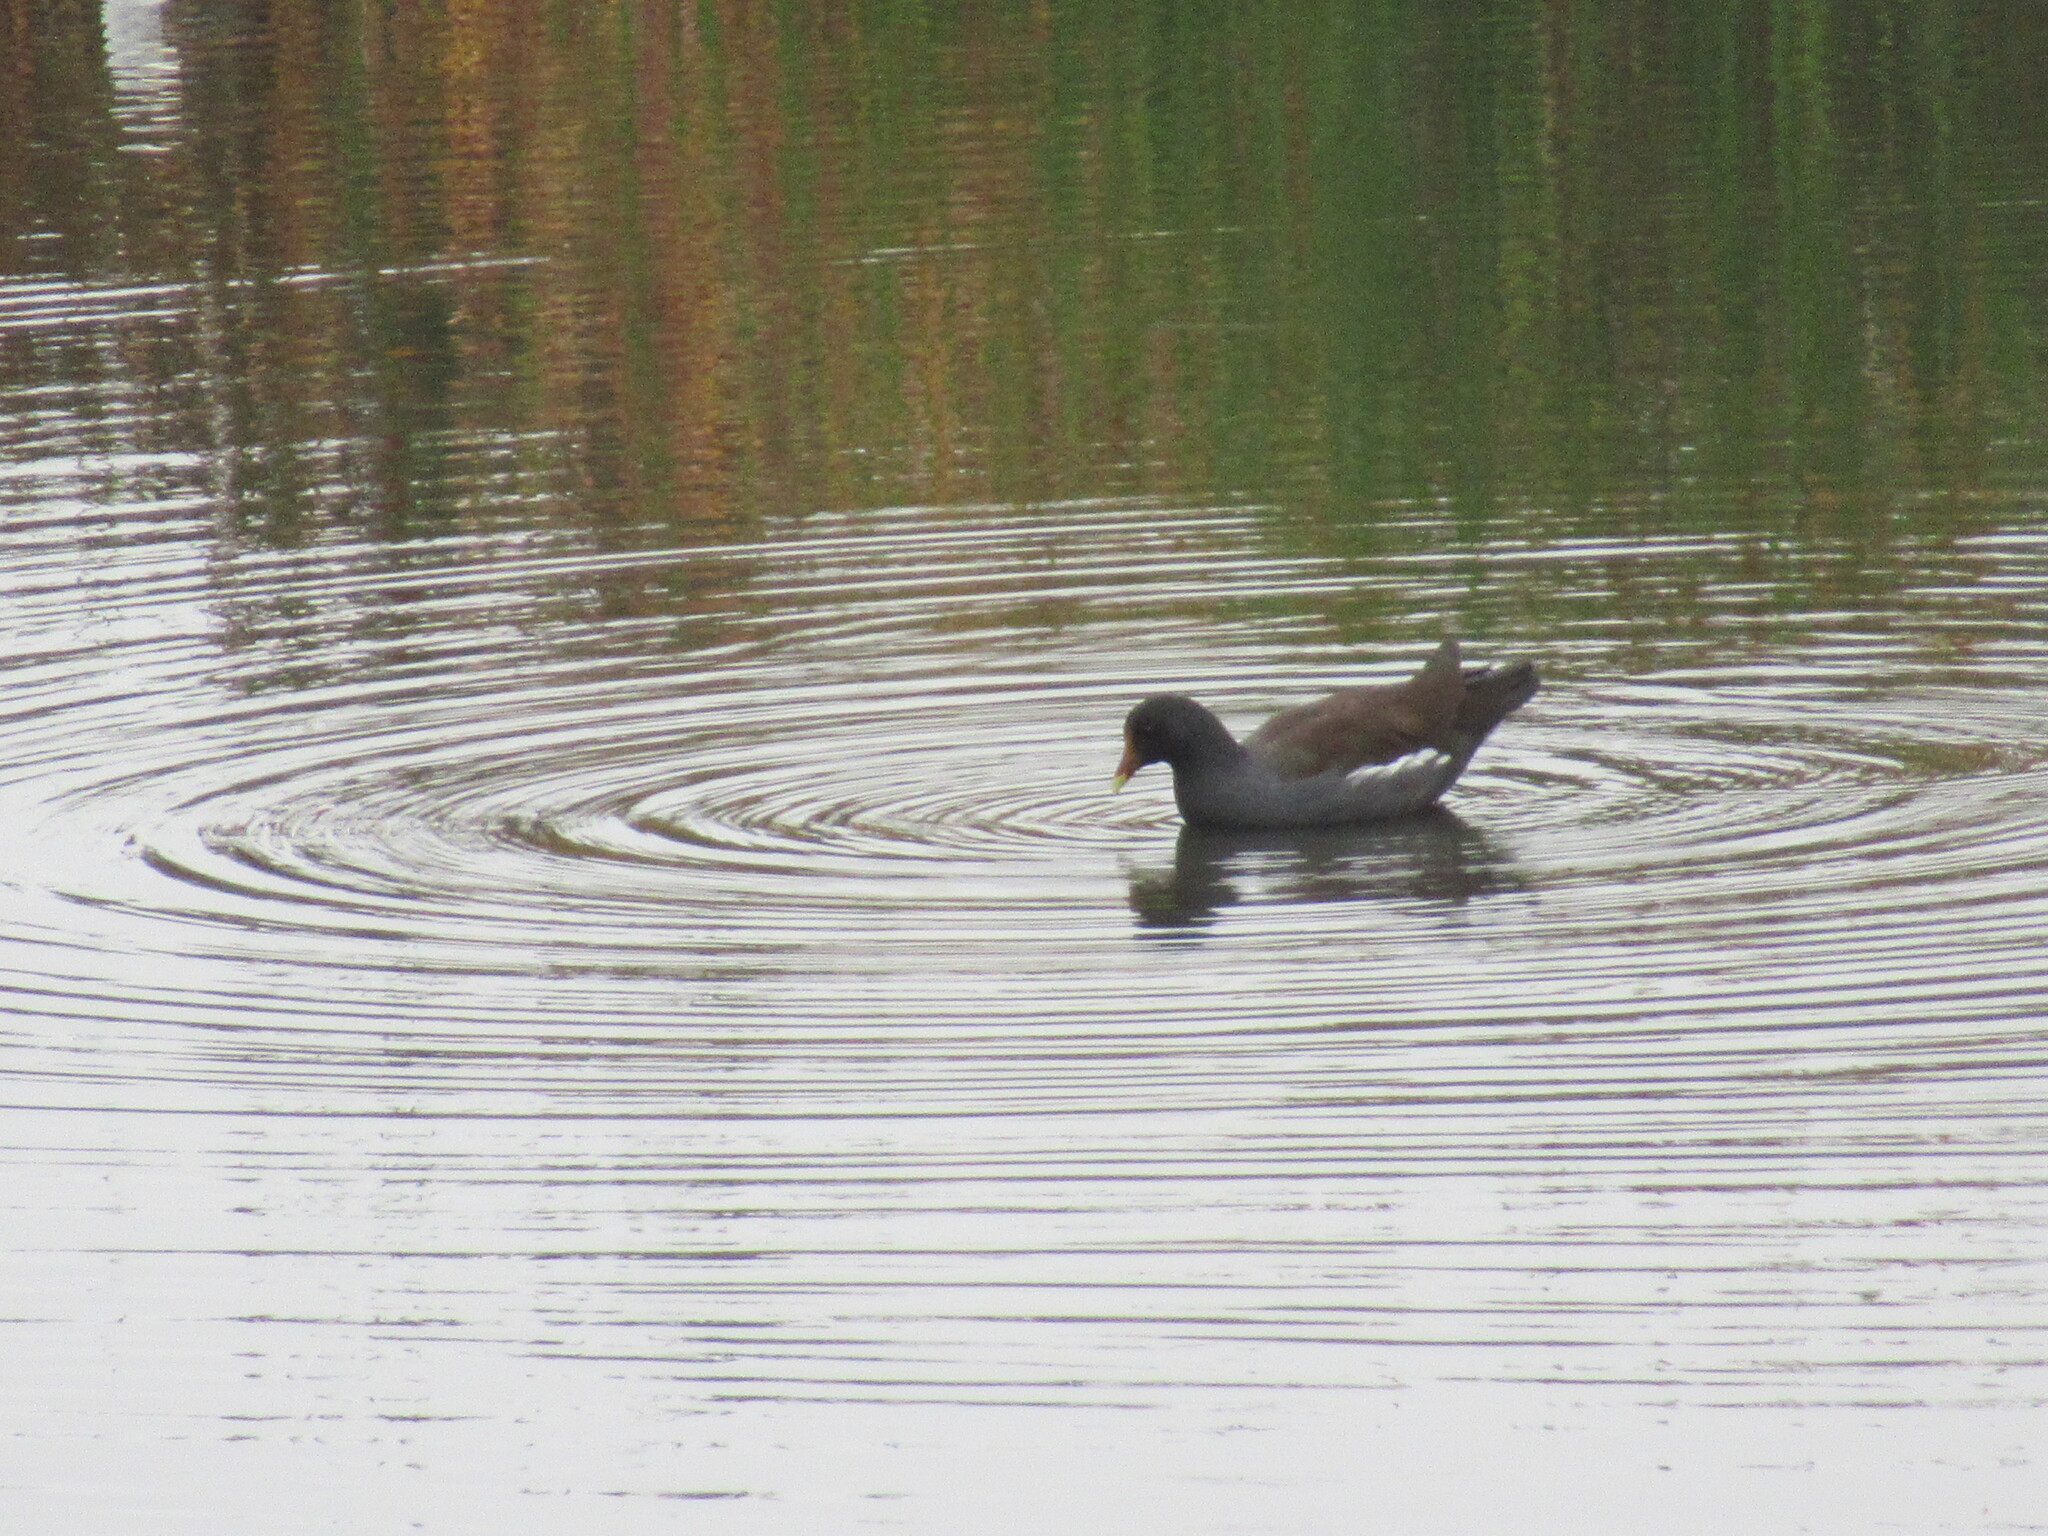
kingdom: Animalia
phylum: Chordata
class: Aves
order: Gruiformes
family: Rallidae
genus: Gallinula
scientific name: Gallinula chloropus
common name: Common moorhen
